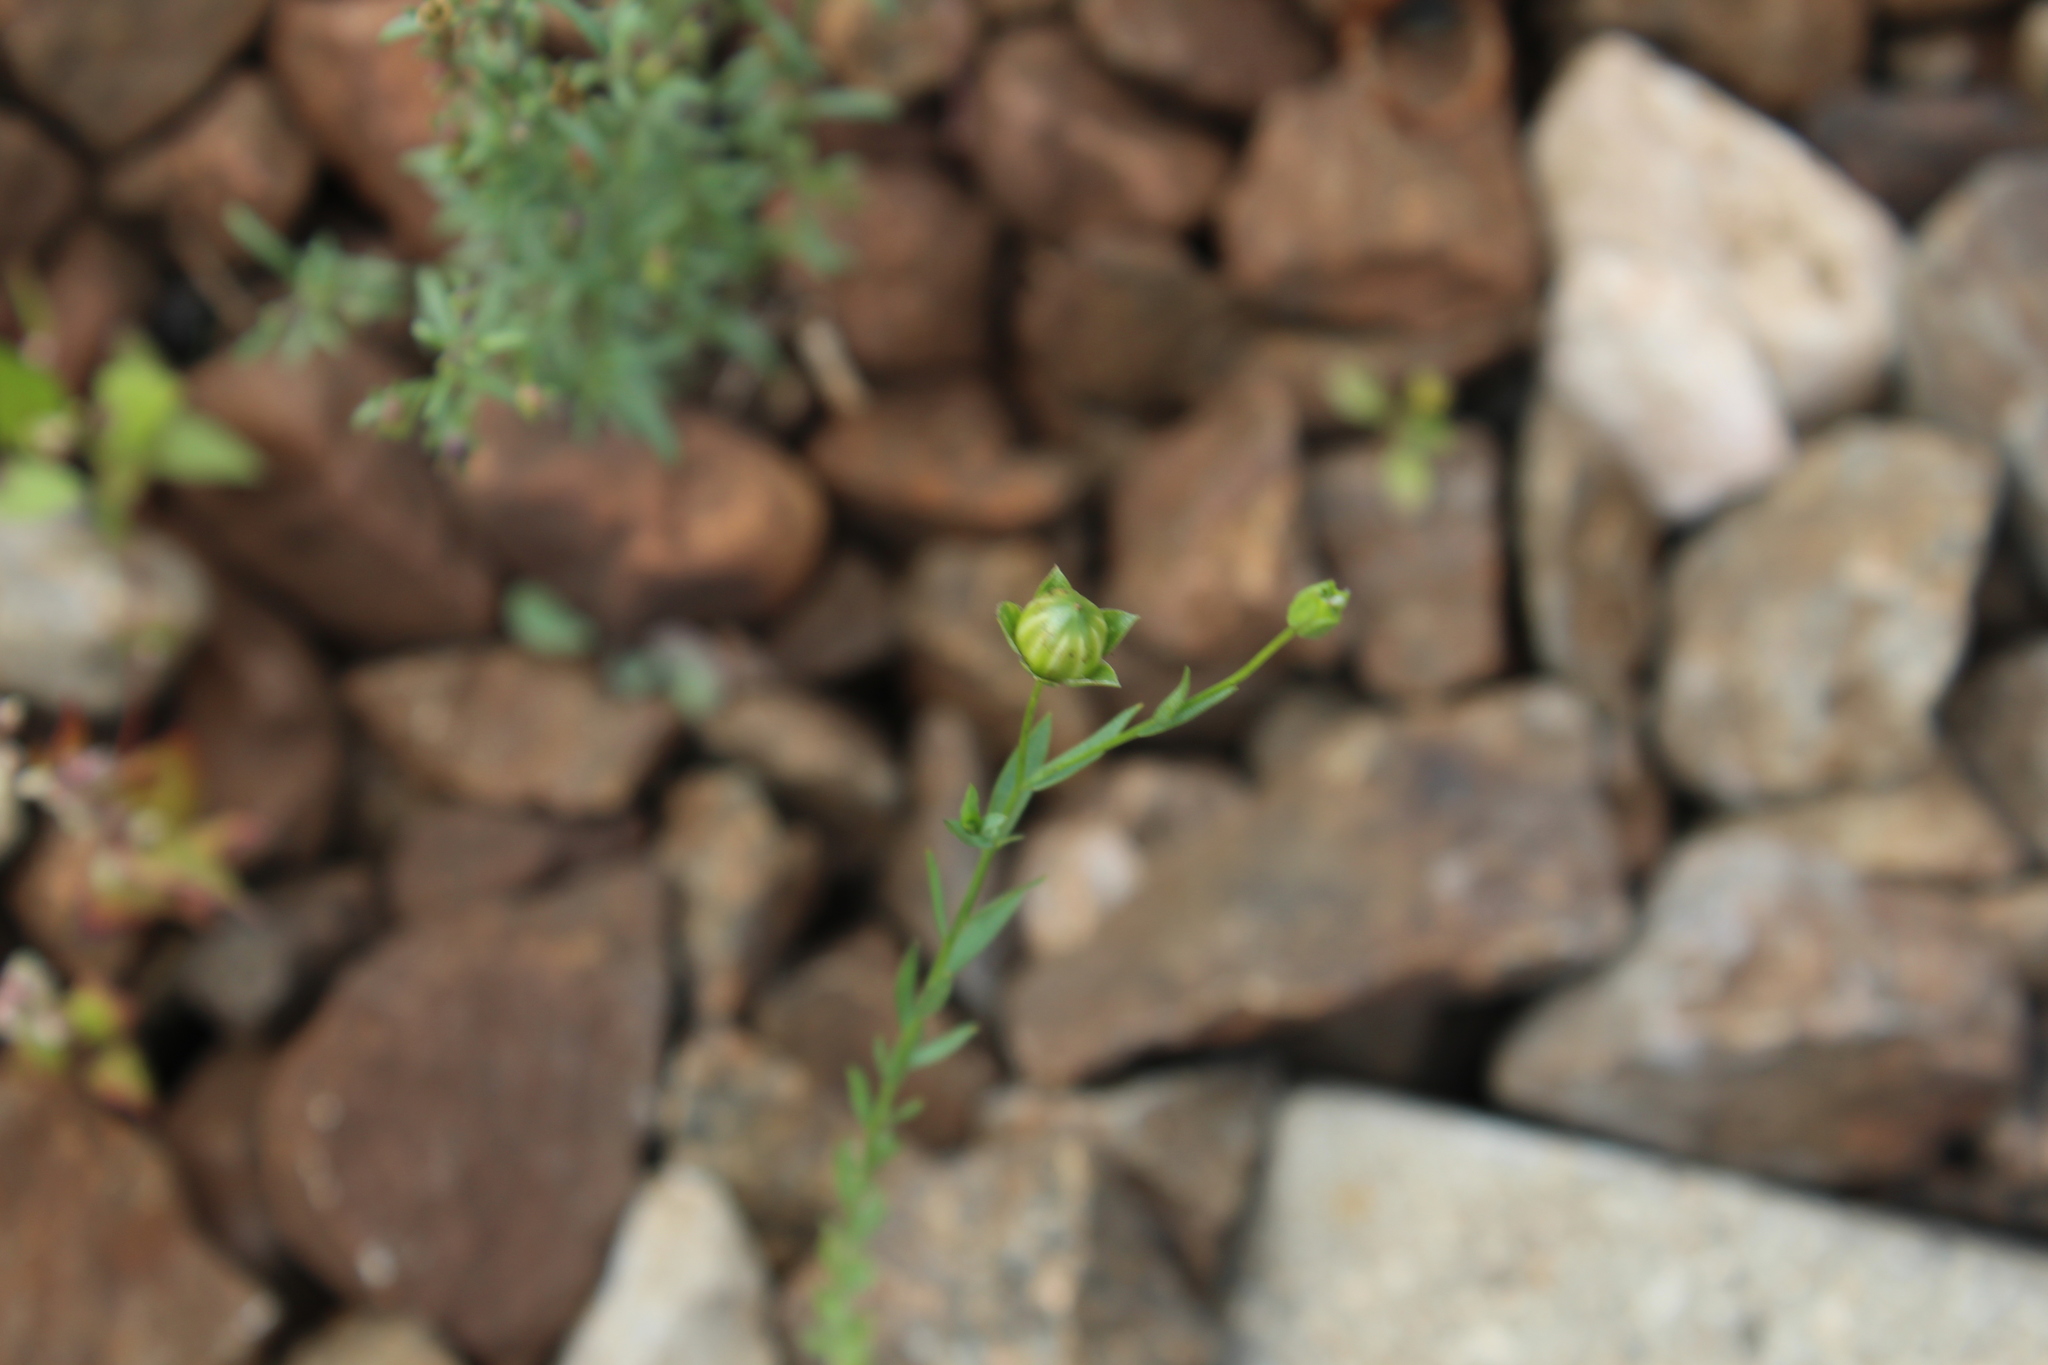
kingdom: Plantae
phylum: Tracheophyta
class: Magnoliopsida
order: Malpighiales
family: Linaceae
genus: Linum
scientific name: Linum usitatissimum
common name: Flax
